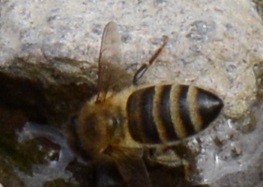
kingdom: Animalia
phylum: Arthropoda
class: Insecta
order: Hymenoptera
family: Apidae
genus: Apis
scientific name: Apis mellifera
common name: Honey bee
